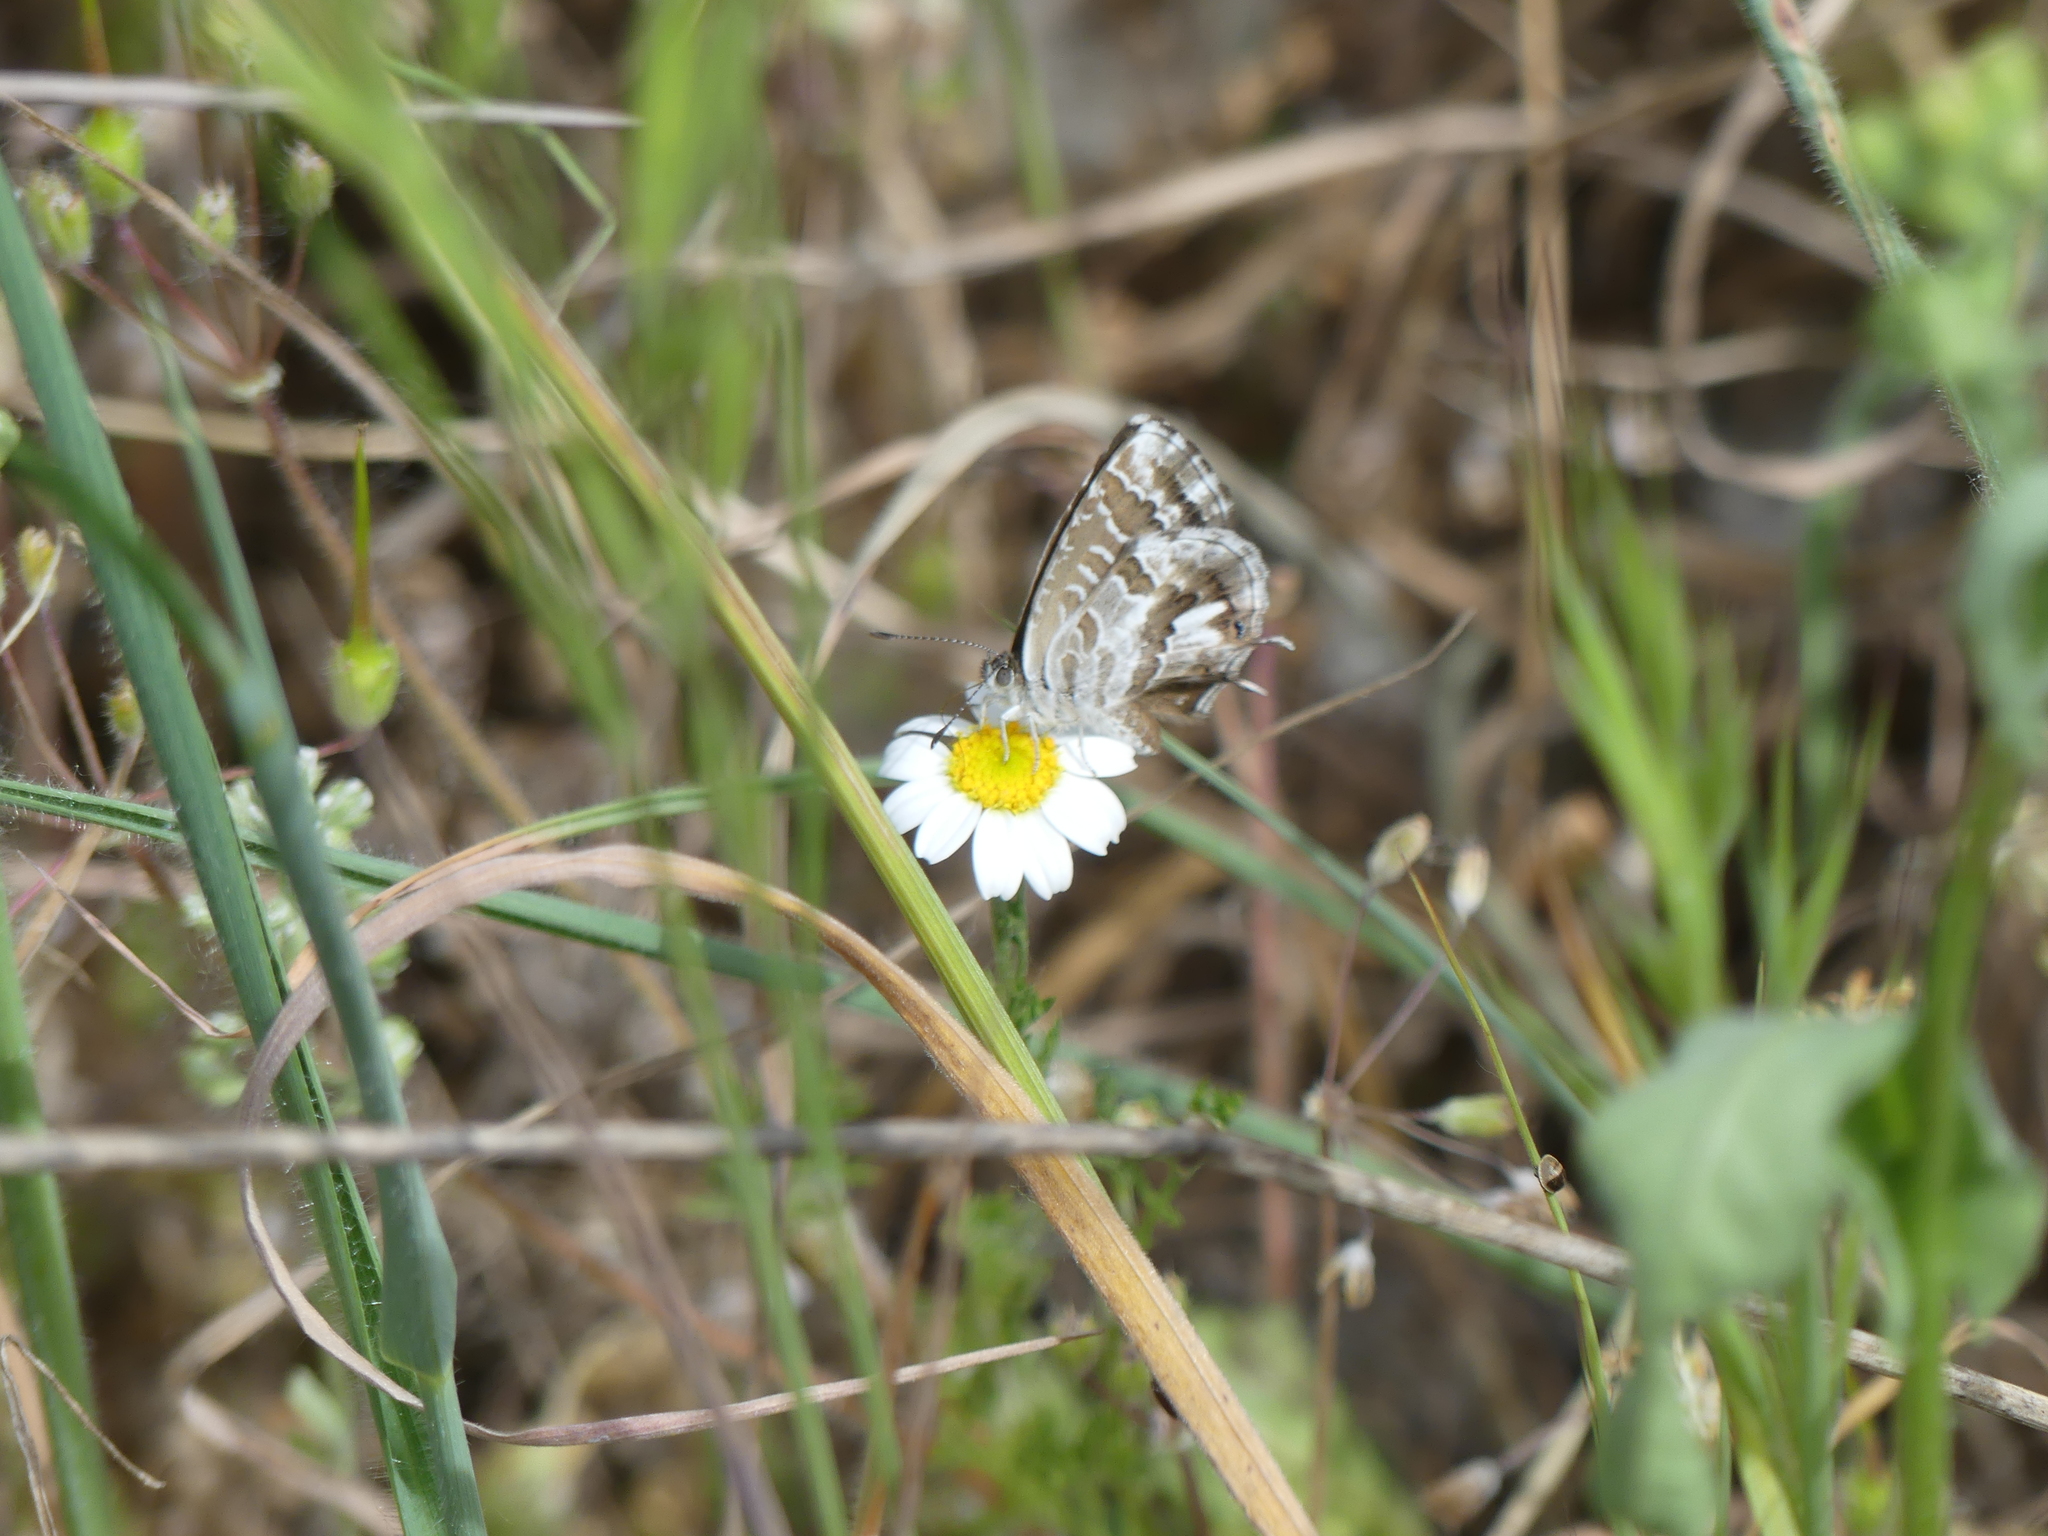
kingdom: Animalia
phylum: Arthropoda
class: Insecta
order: Lepidoptera
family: Lycaenidae
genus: Cacyreus
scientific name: Cacyreus marshalli
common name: Geranium bronze
